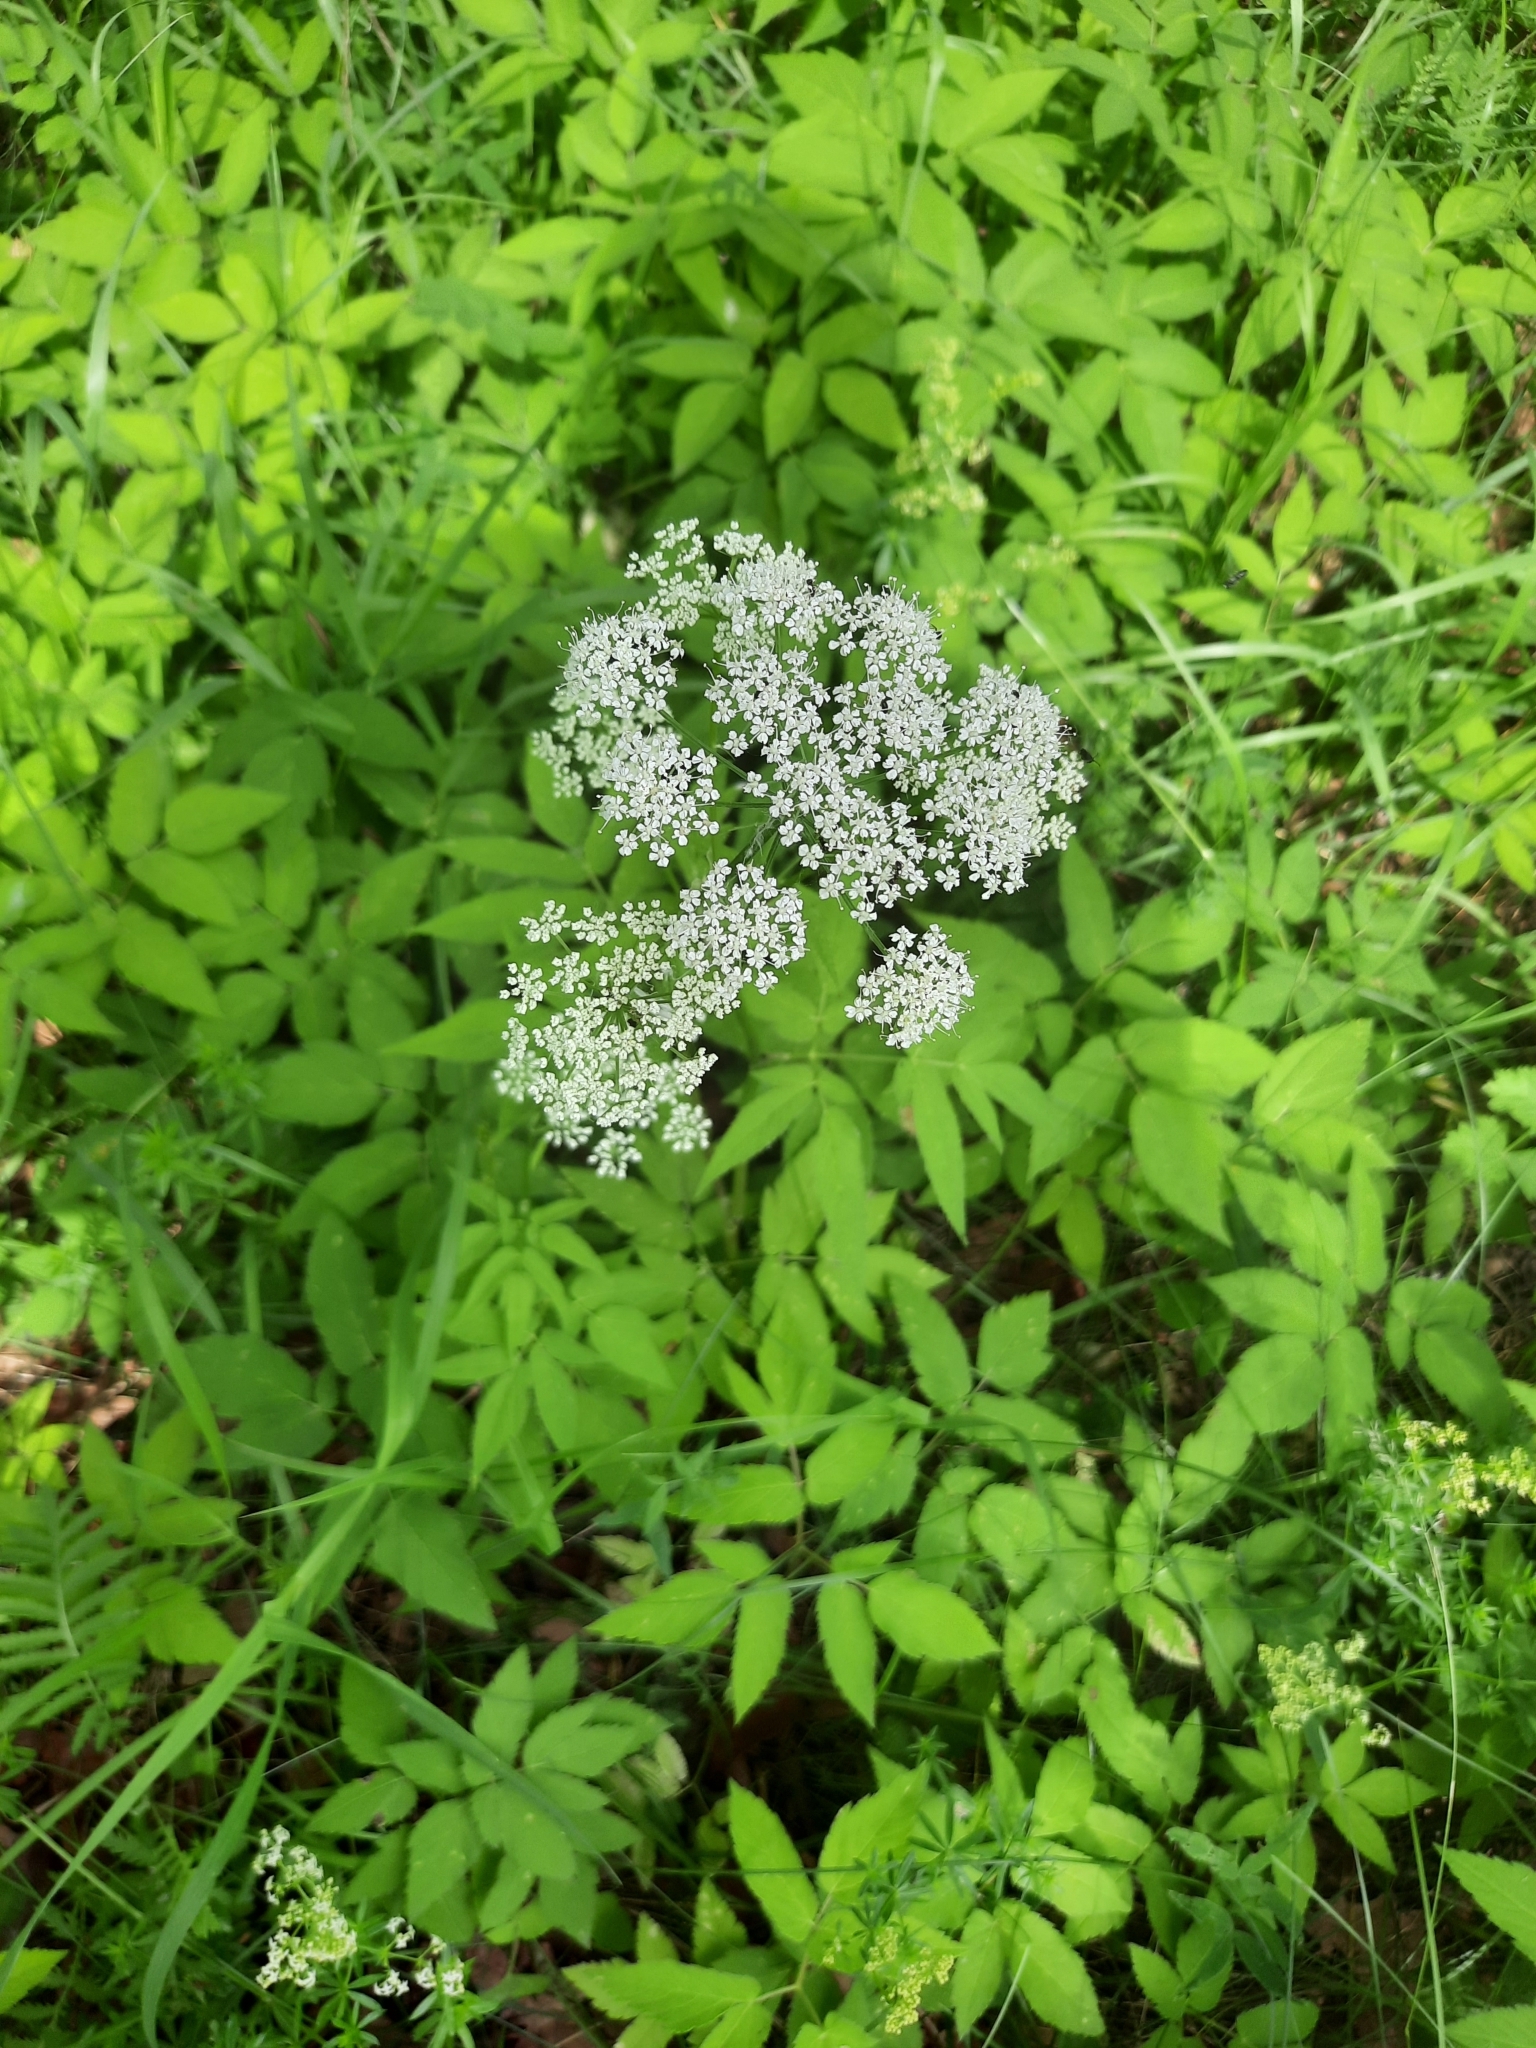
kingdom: Plantae
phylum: Tracheophyta
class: Magnoliopsida
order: Apiales
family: Apiaceae
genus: Aegopodium
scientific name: Aegopodium podagraria
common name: Ground-elder
